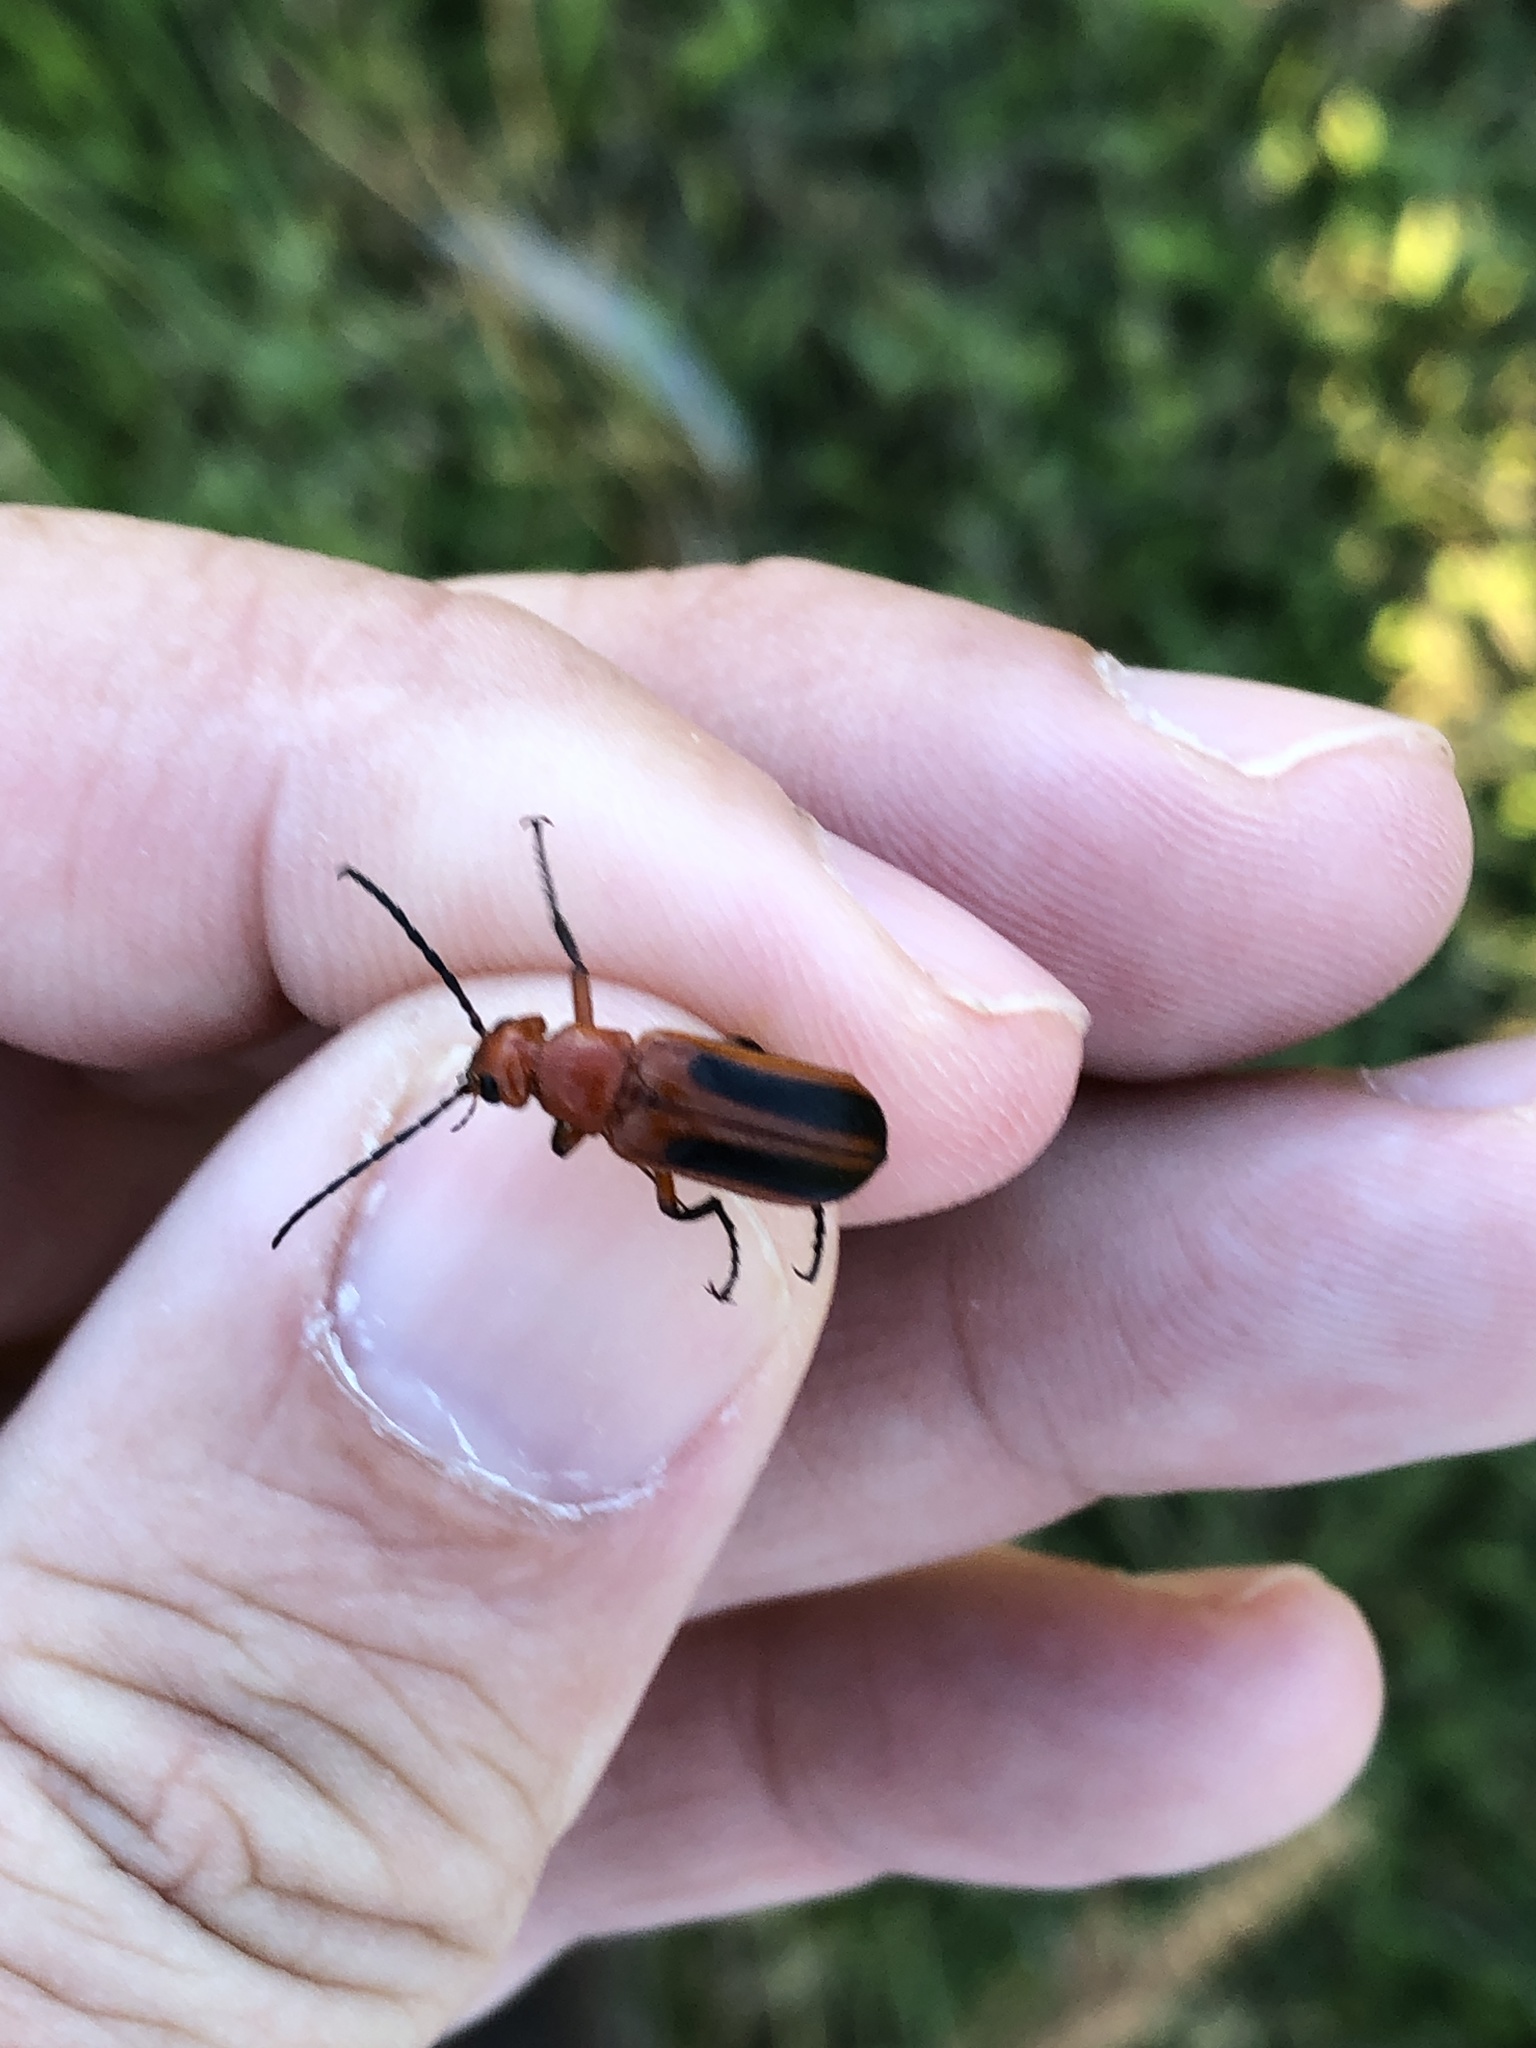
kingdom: Animalia
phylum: Arthropoda
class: Insecta
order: Coleoptera
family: Meloidae
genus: Nemognatha
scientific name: Nemognatha piazata
